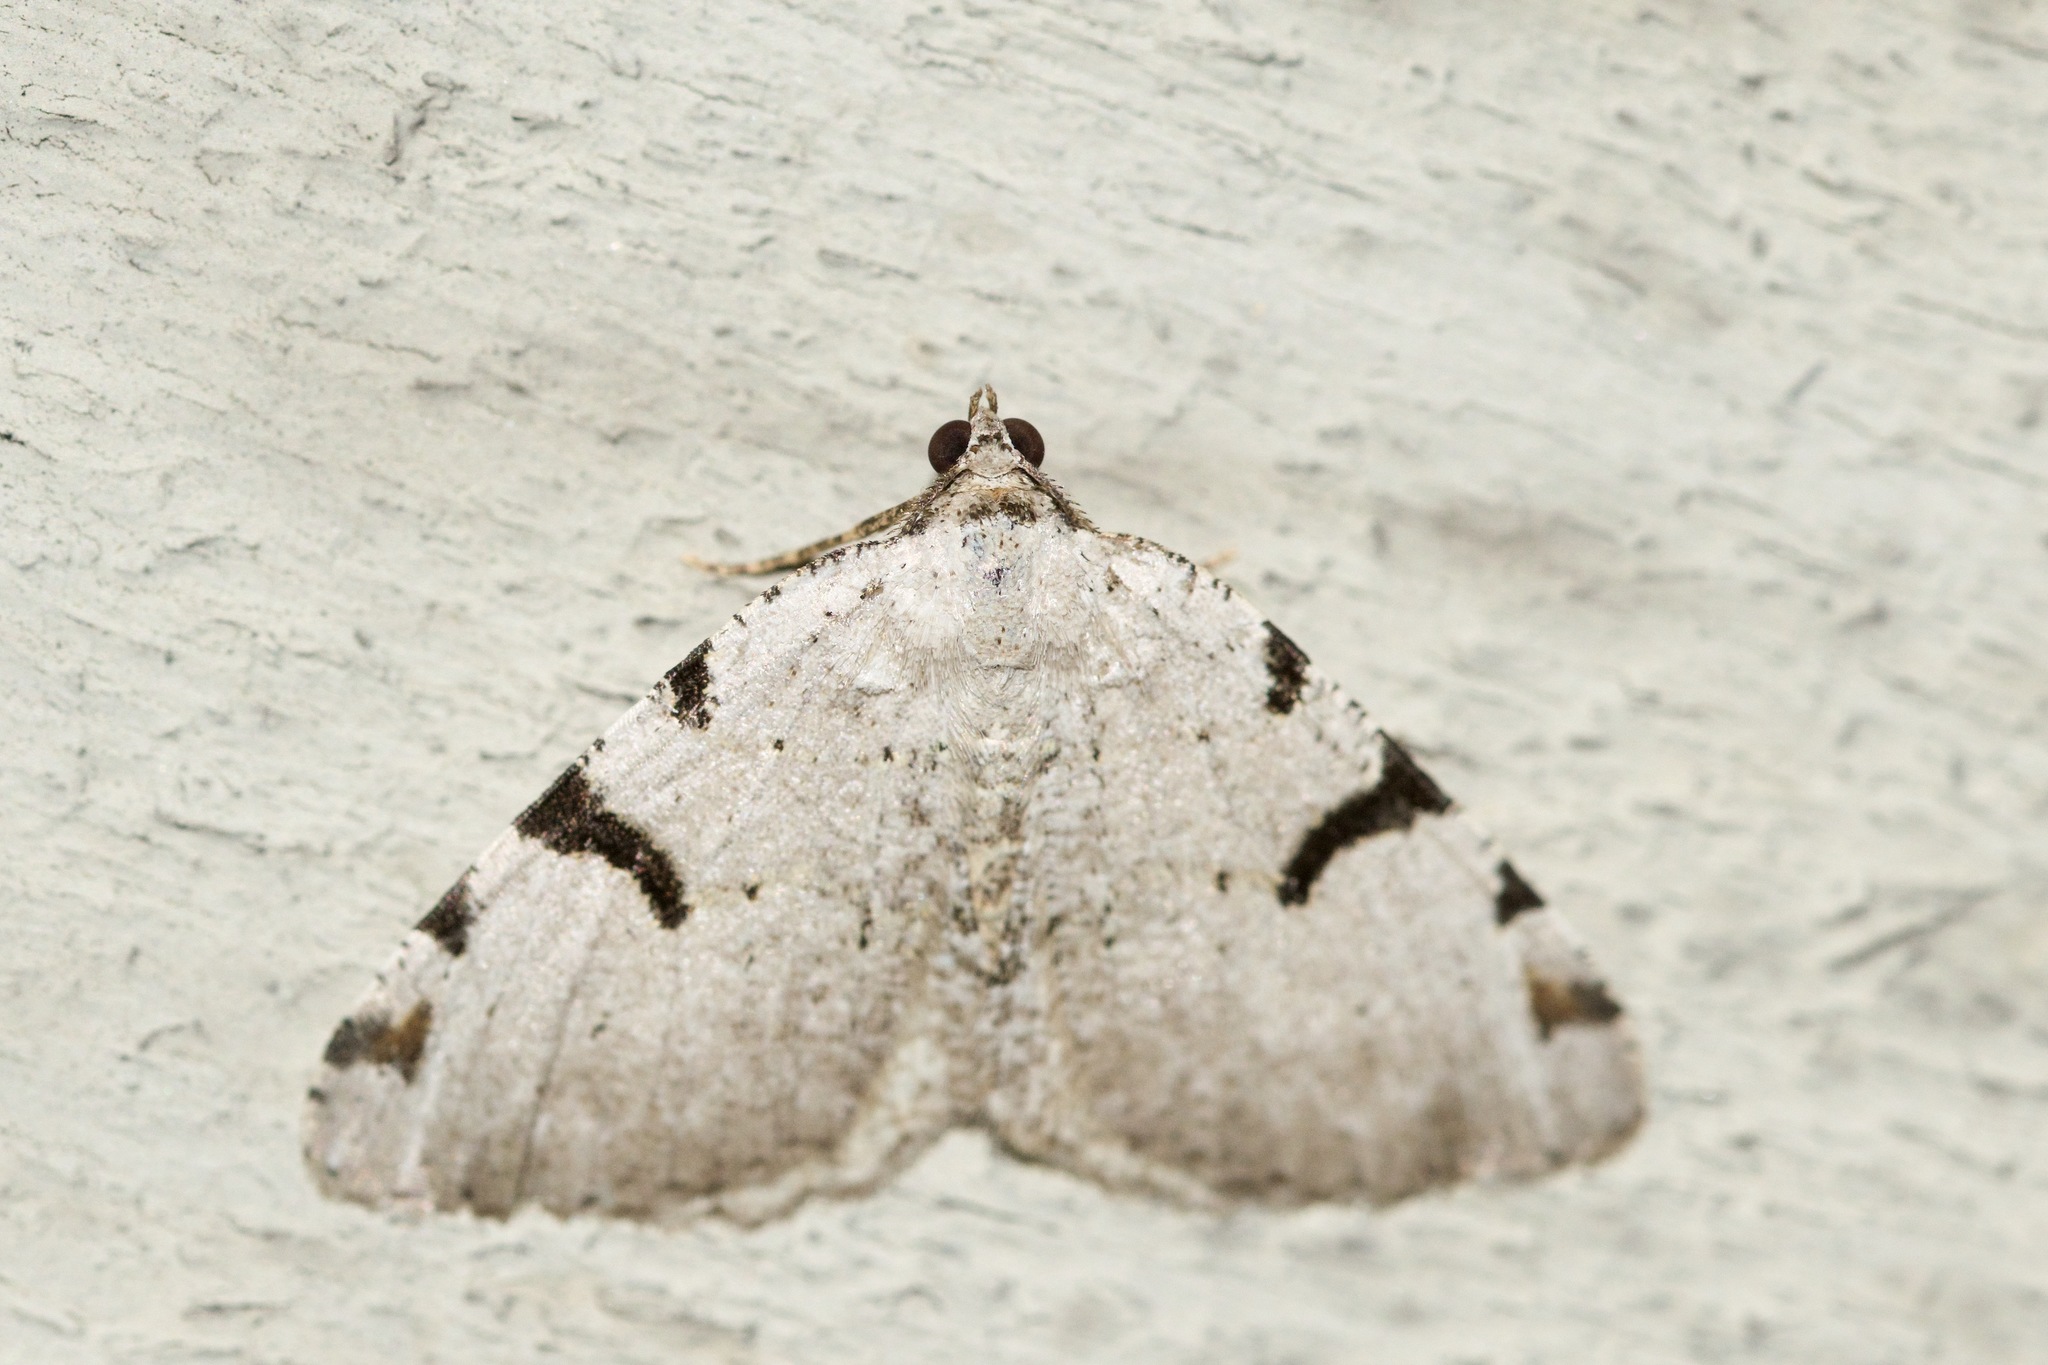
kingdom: Animalia
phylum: Arthropoda
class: Insecta
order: Lepidoptera
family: Geometridae
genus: Macaria
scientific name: Macaria subcessaria
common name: Barred angle
